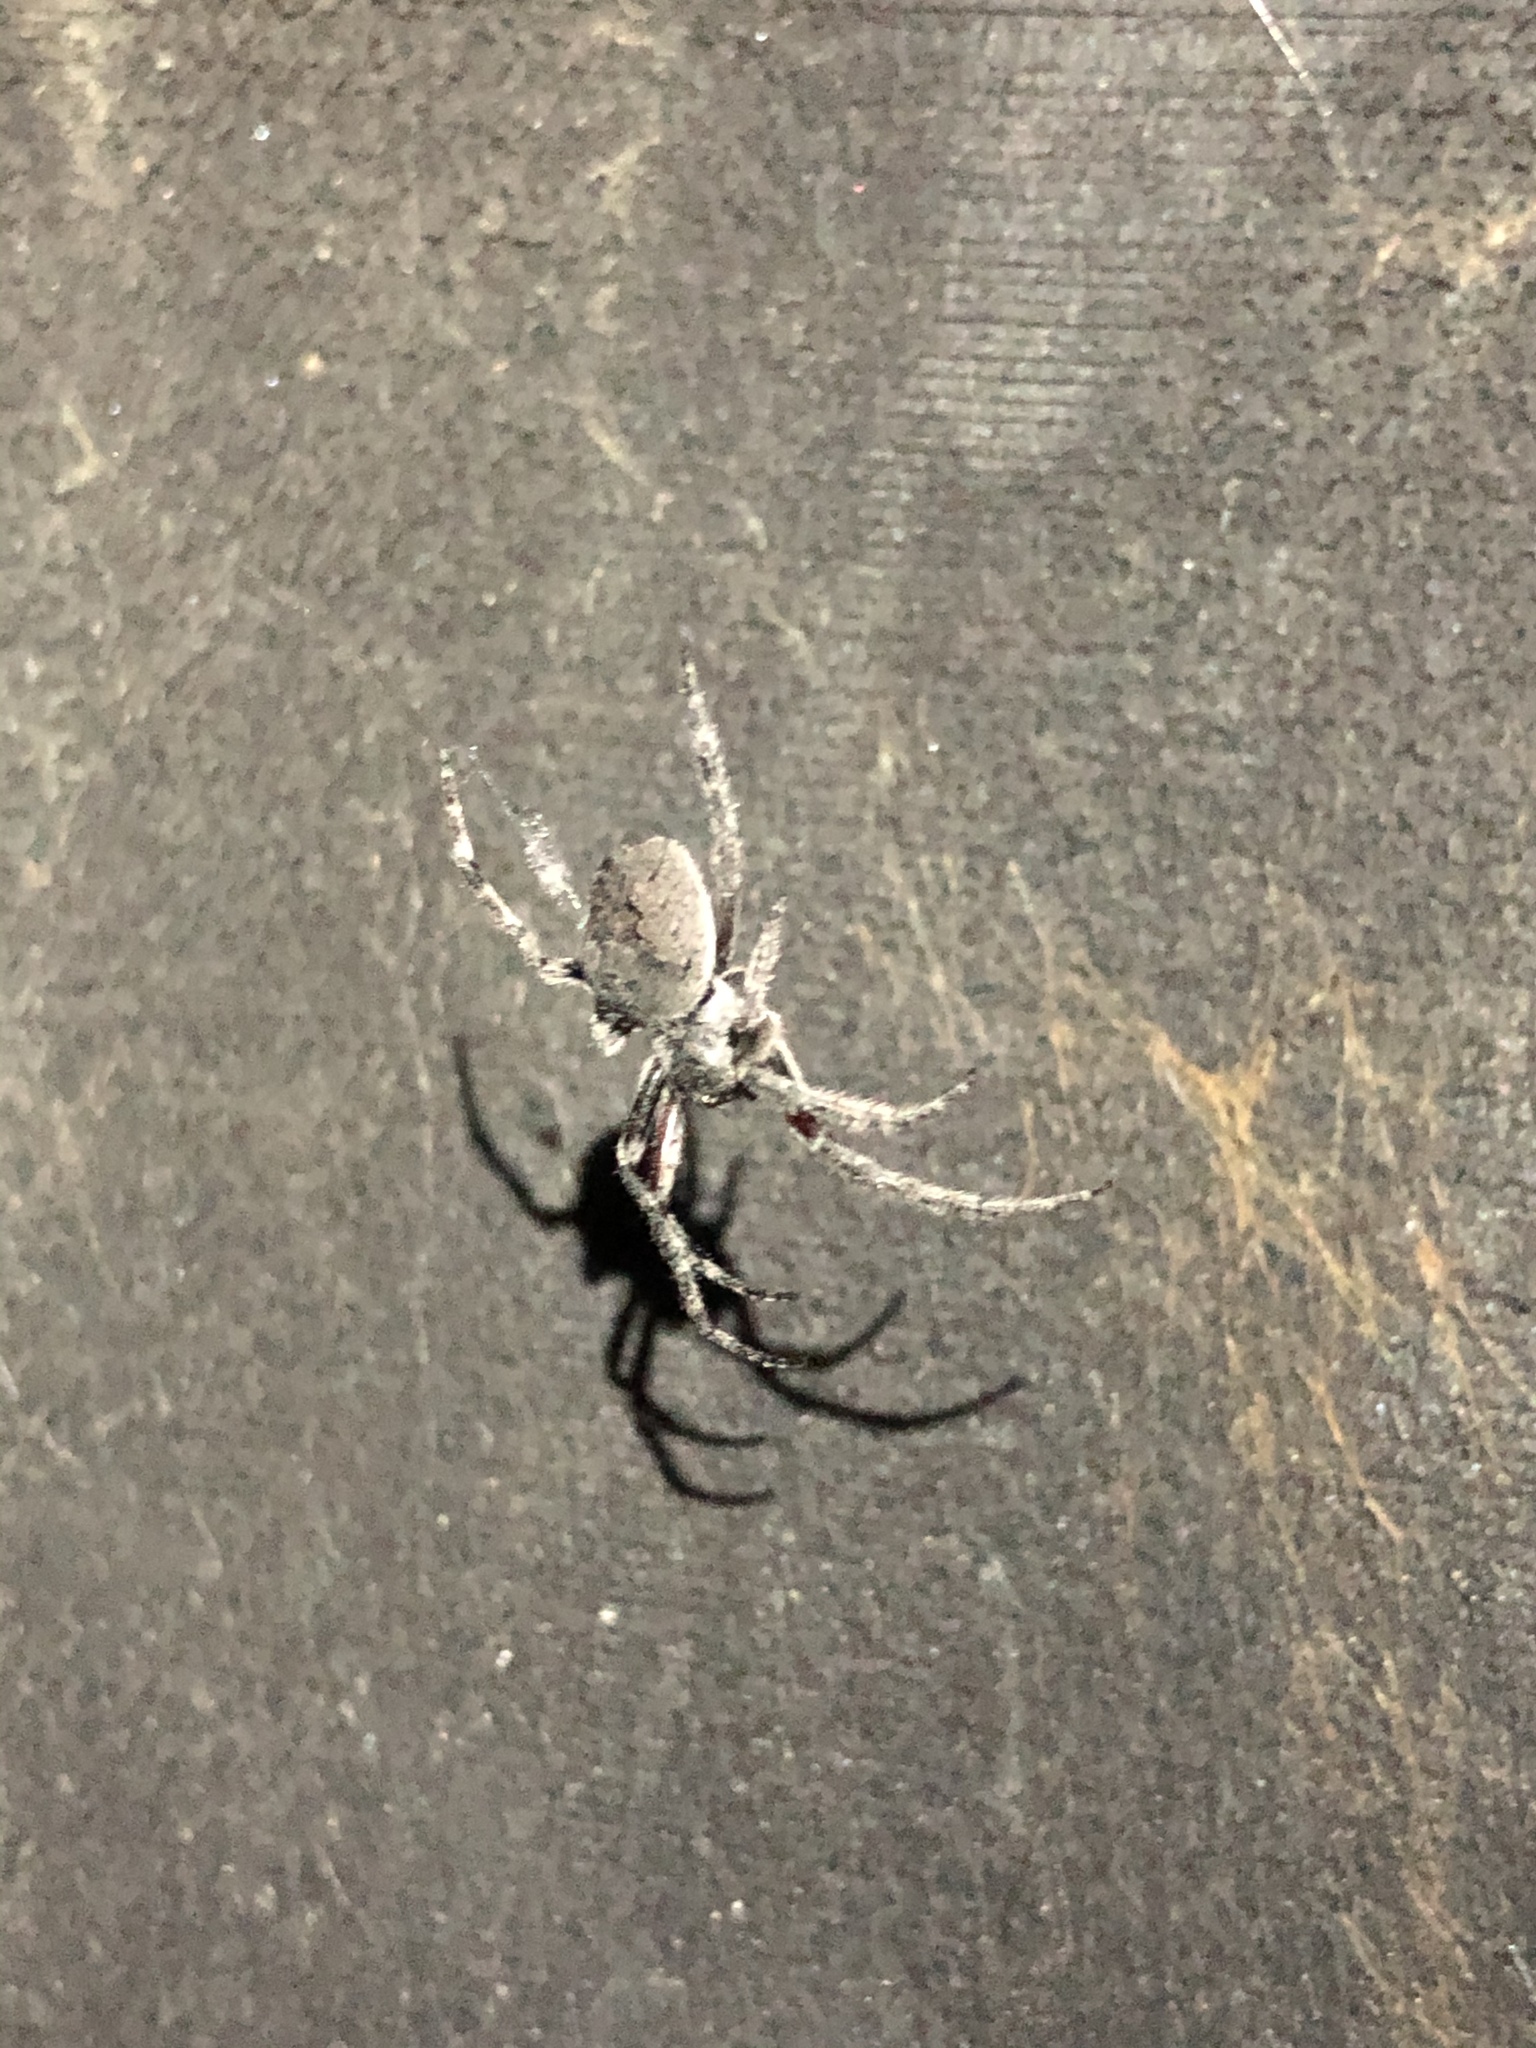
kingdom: Animalia
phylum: Arthropoda
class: Arachnida
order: Araneae
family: Araneidae
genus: Eriophora
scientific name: Eriophora pustulosa
